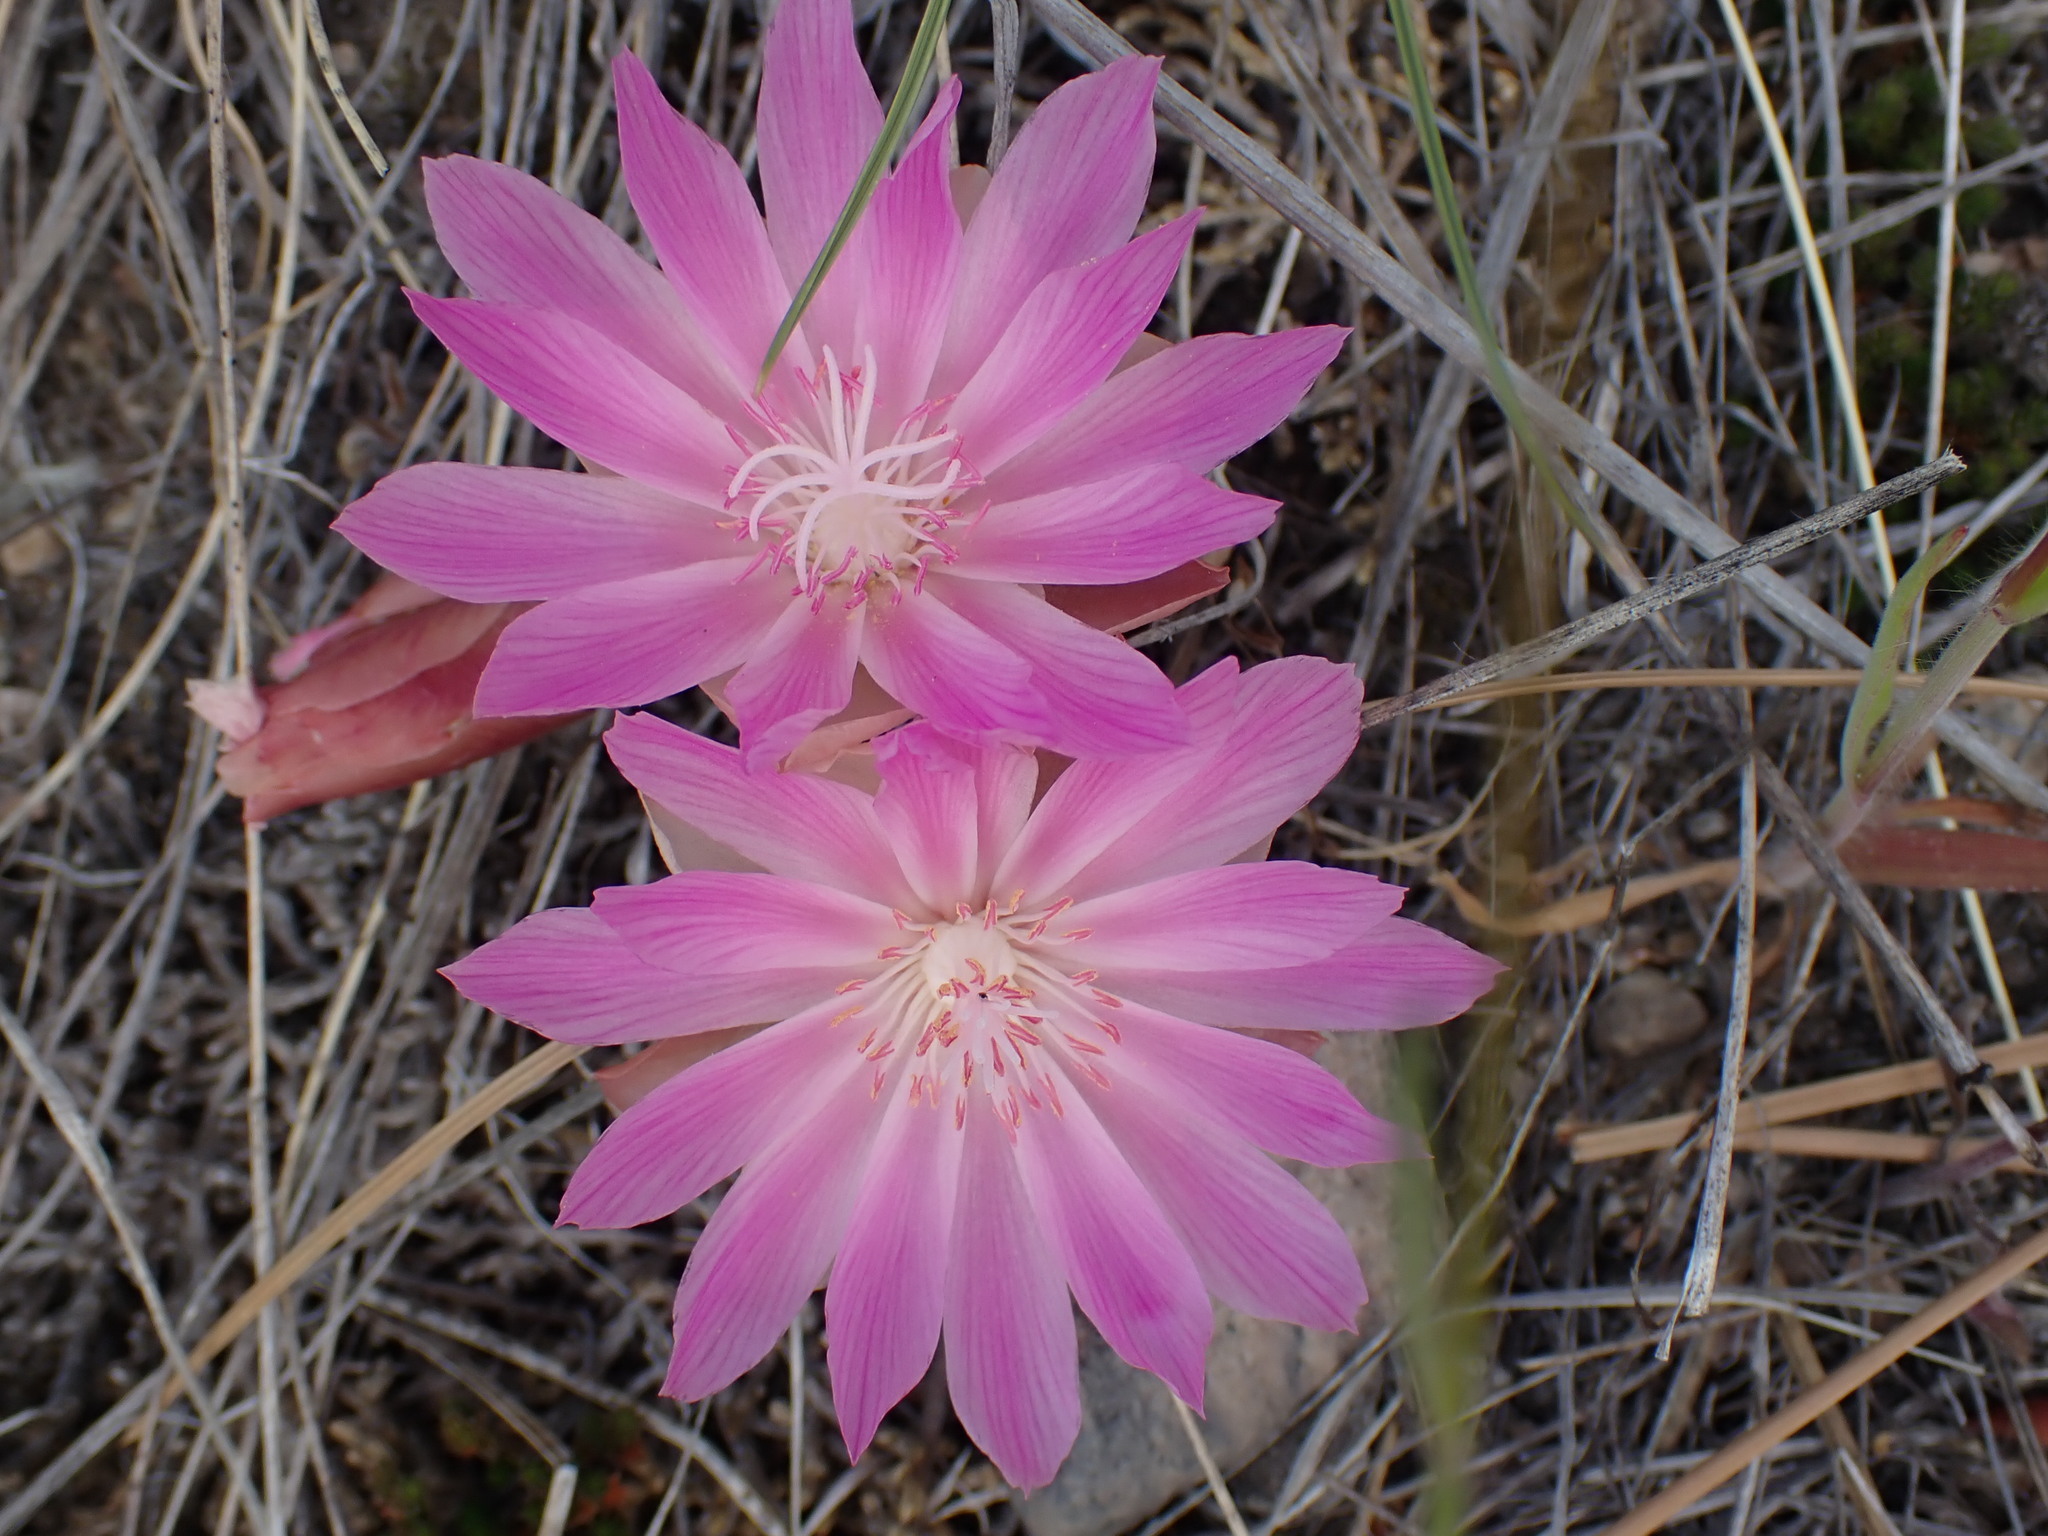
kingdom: Plantae
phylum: Tracheophyta
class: Magnoliopsida
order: Caryophyllales
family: Montiaceae
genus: Lewisia
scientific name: Lewisia rediviva
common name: Bitter-root
